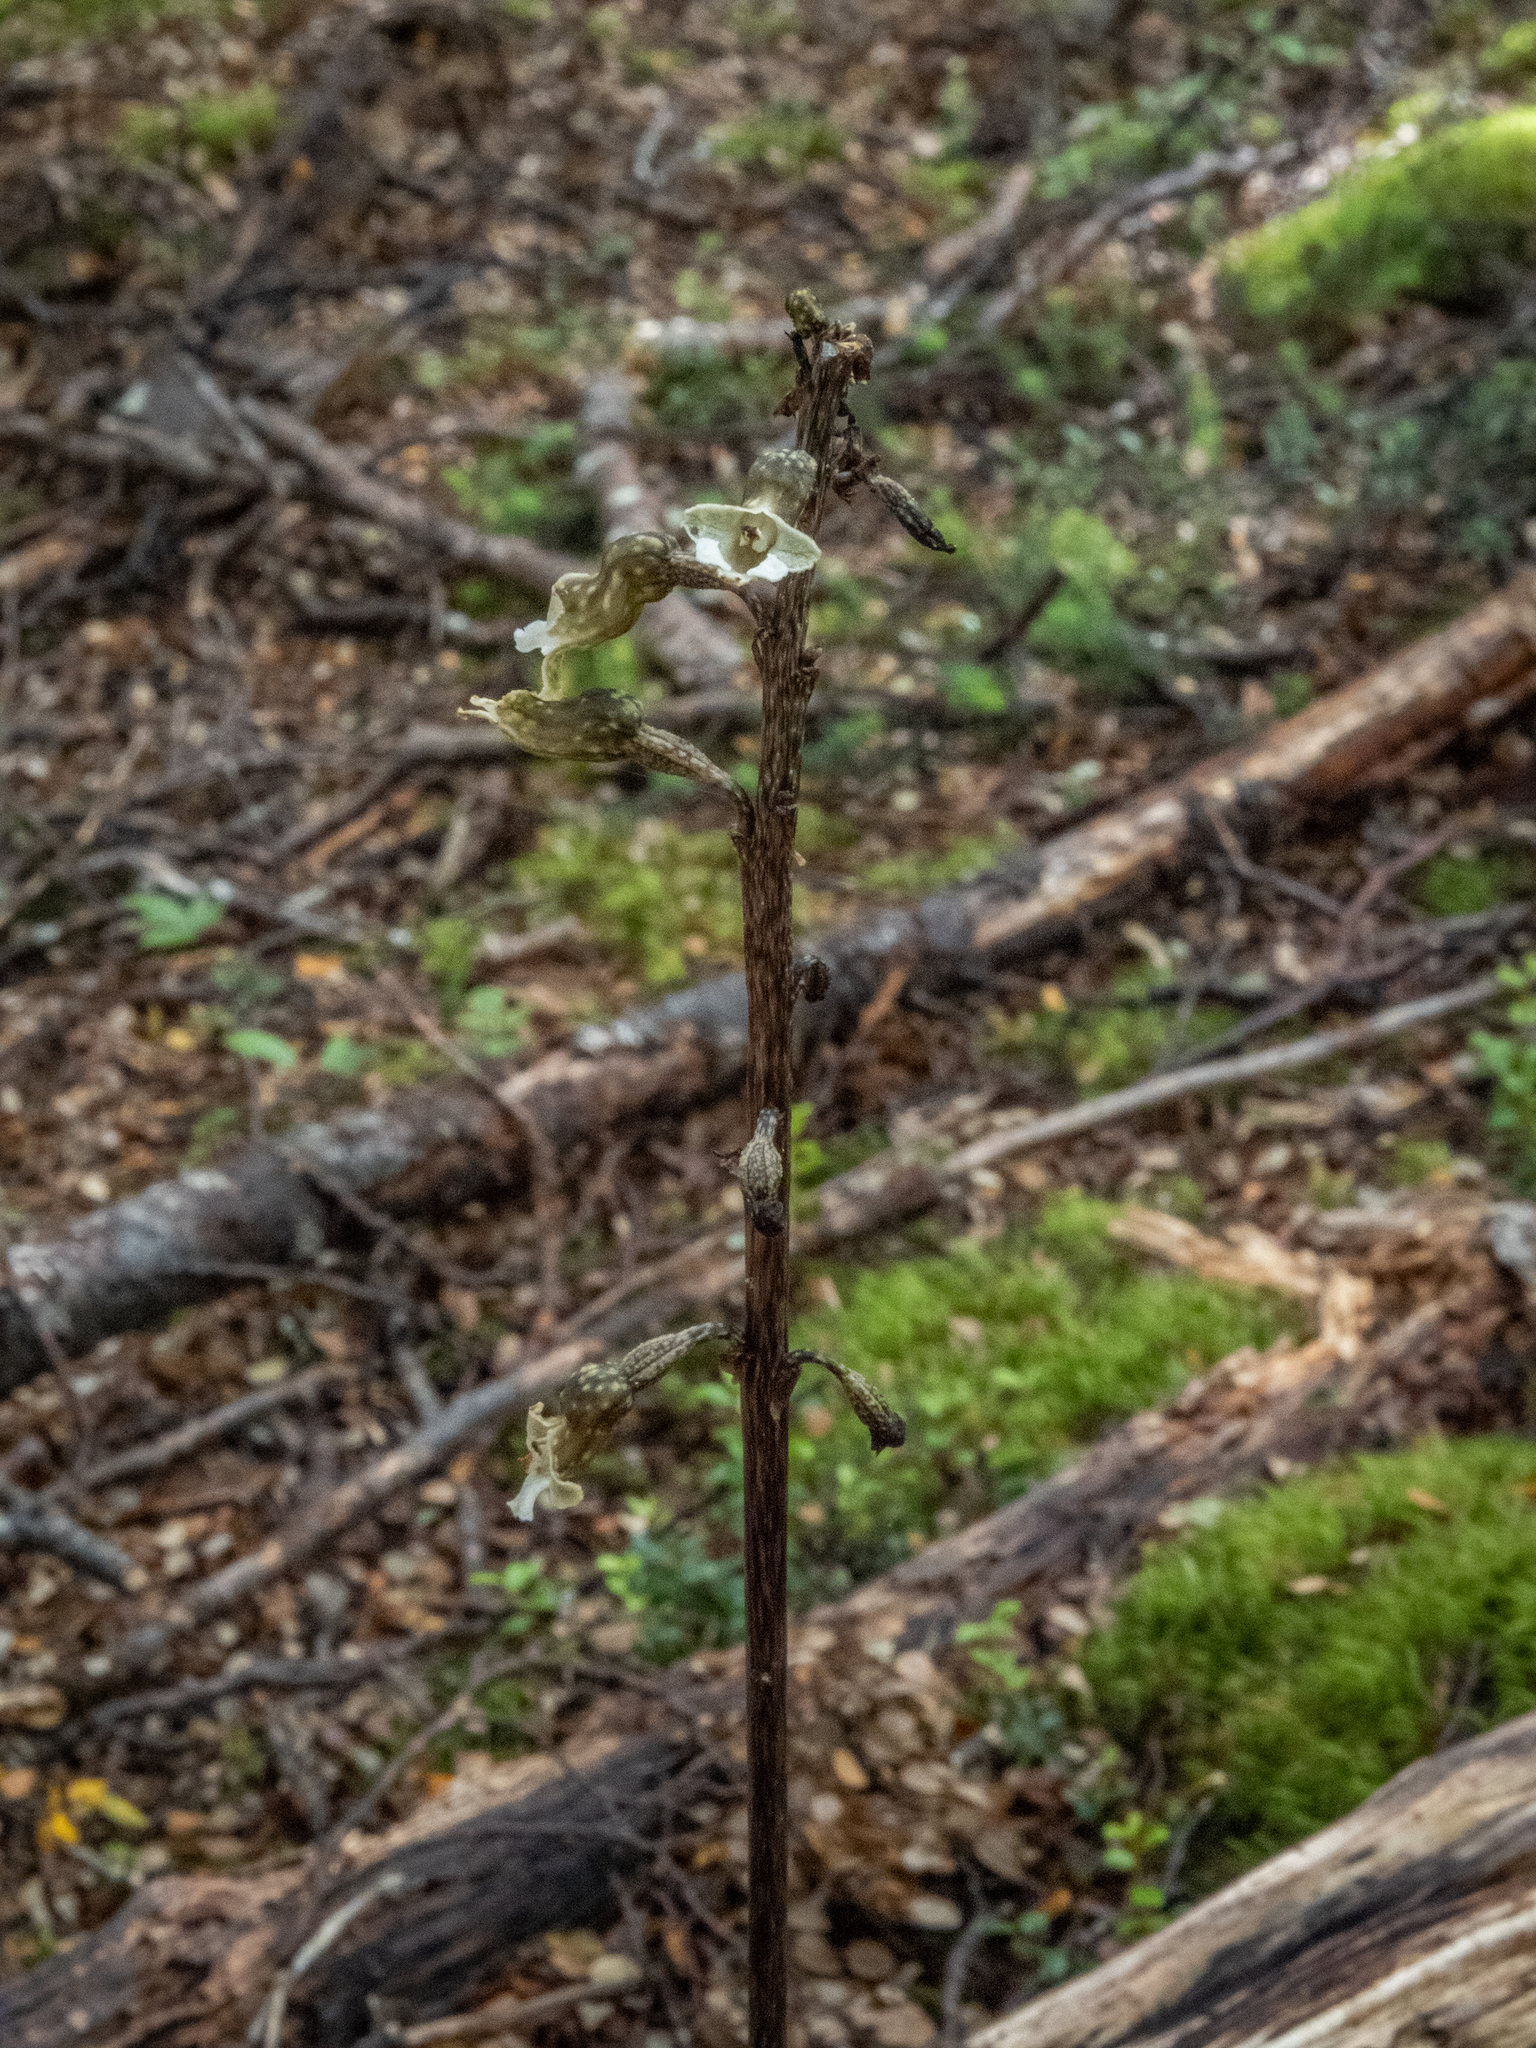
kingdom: Plantae
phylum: Tracheophyta
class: Liliopsida
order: Asparagales
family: Orchidaceae
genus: Gastrodia
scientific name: Gastrodia cunninghamii
